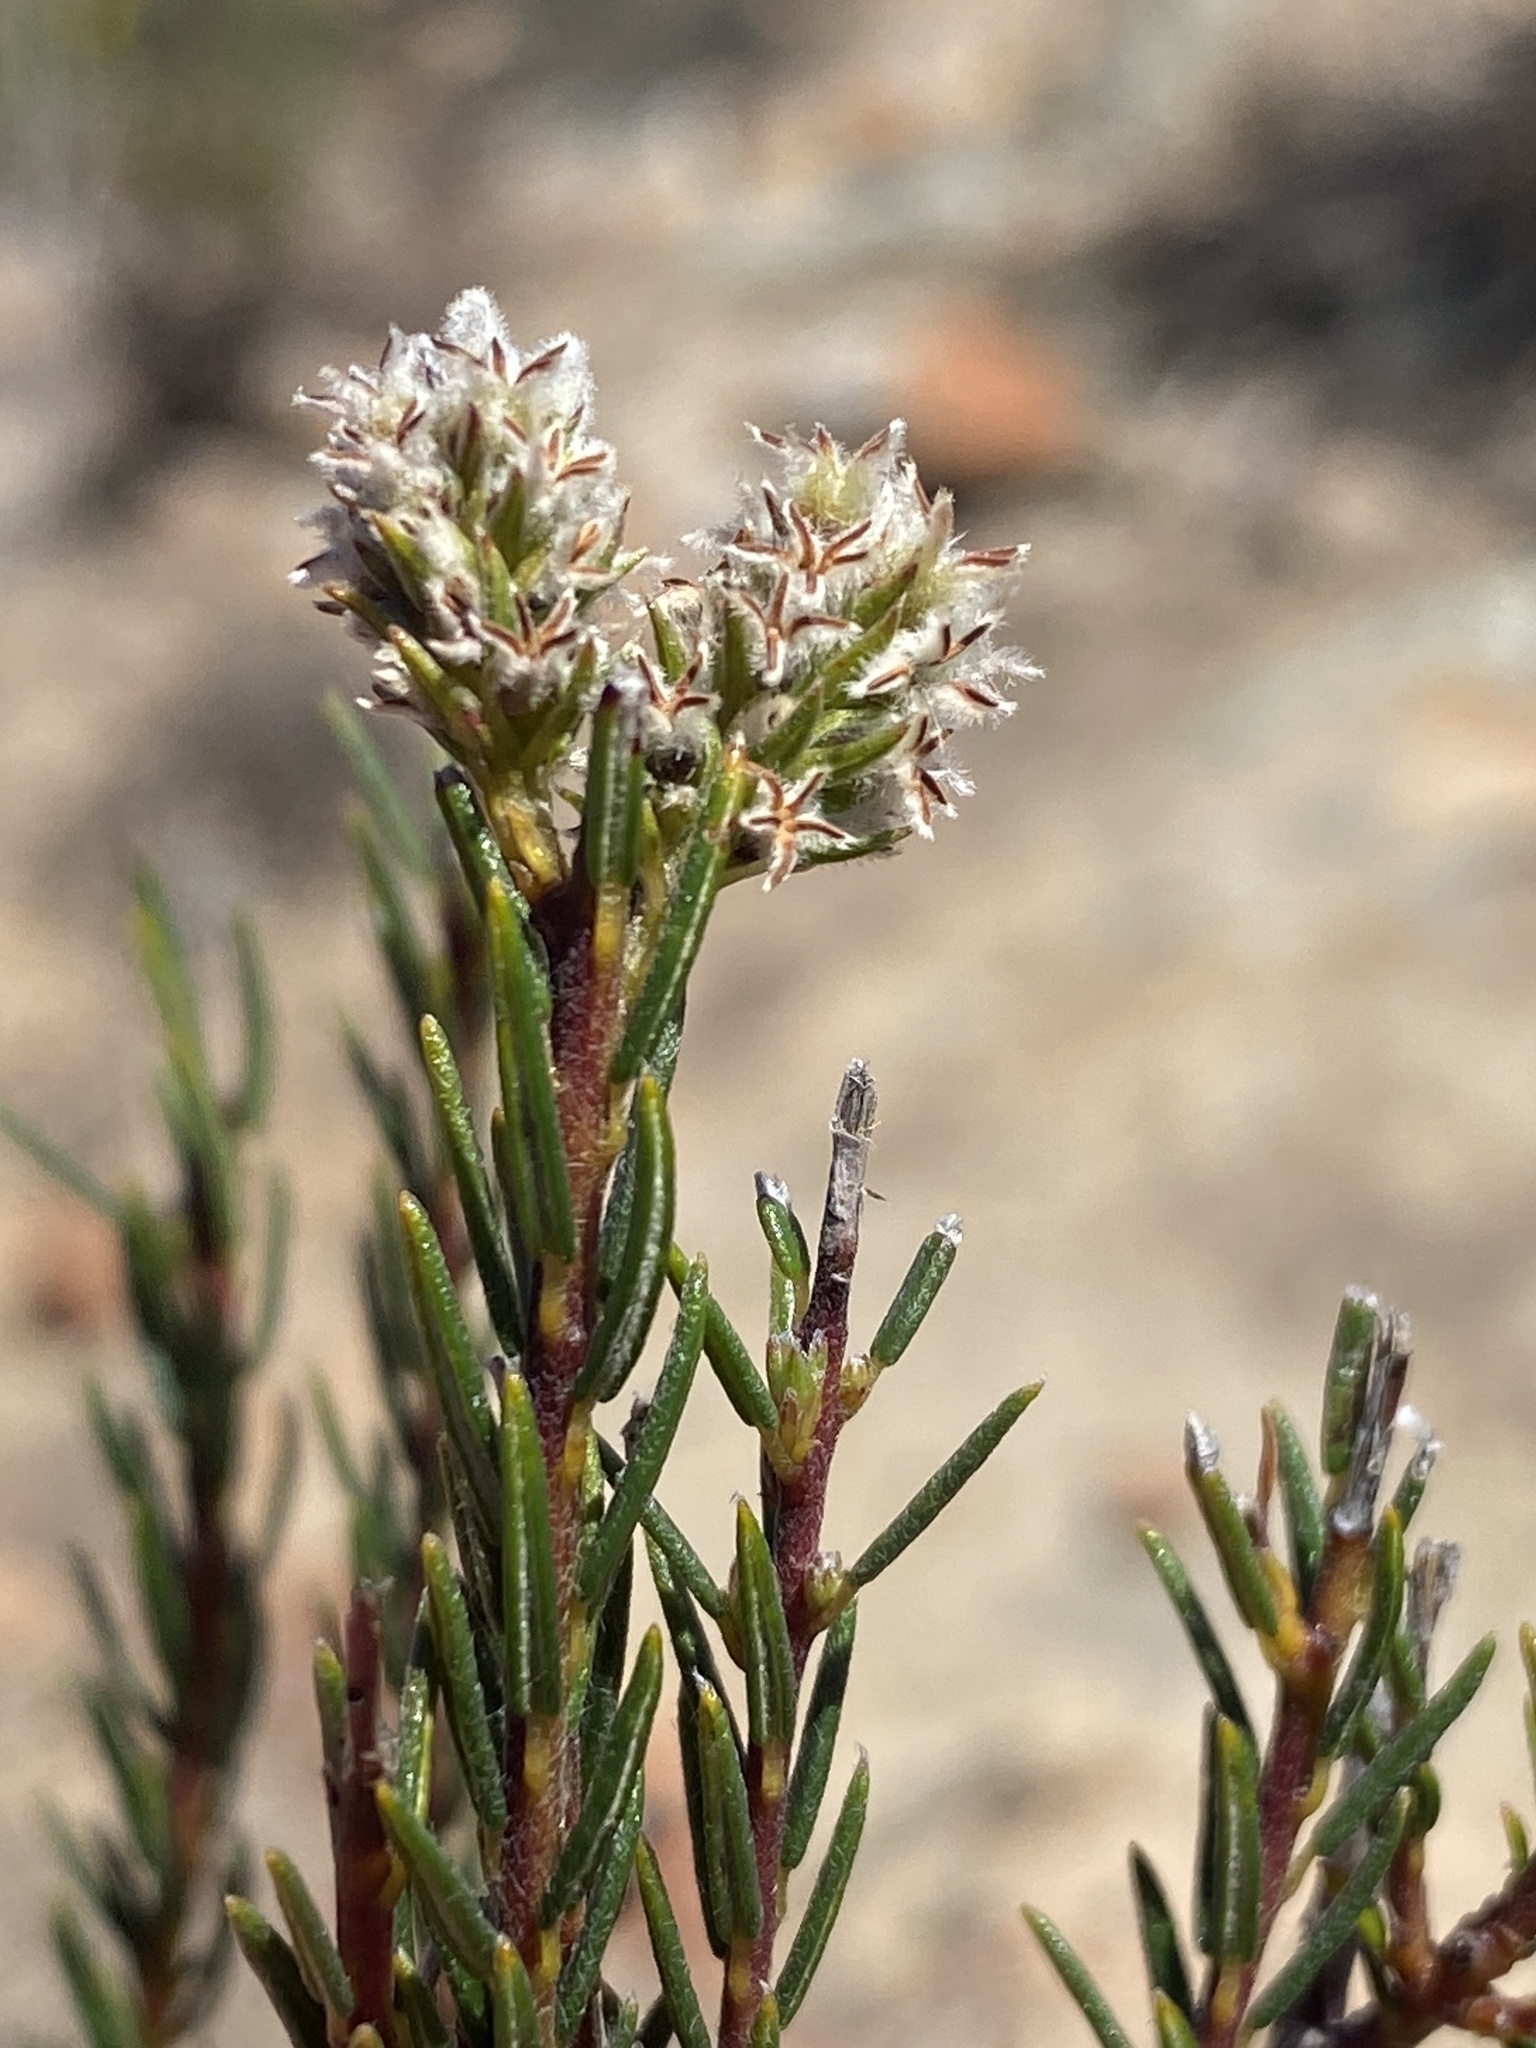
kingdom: Plantae
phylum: Tracheophyta
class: Magnoliopsida
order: Rosales
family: Rhamnaceae
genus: Phylica
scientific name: Phylica agathosmoides
